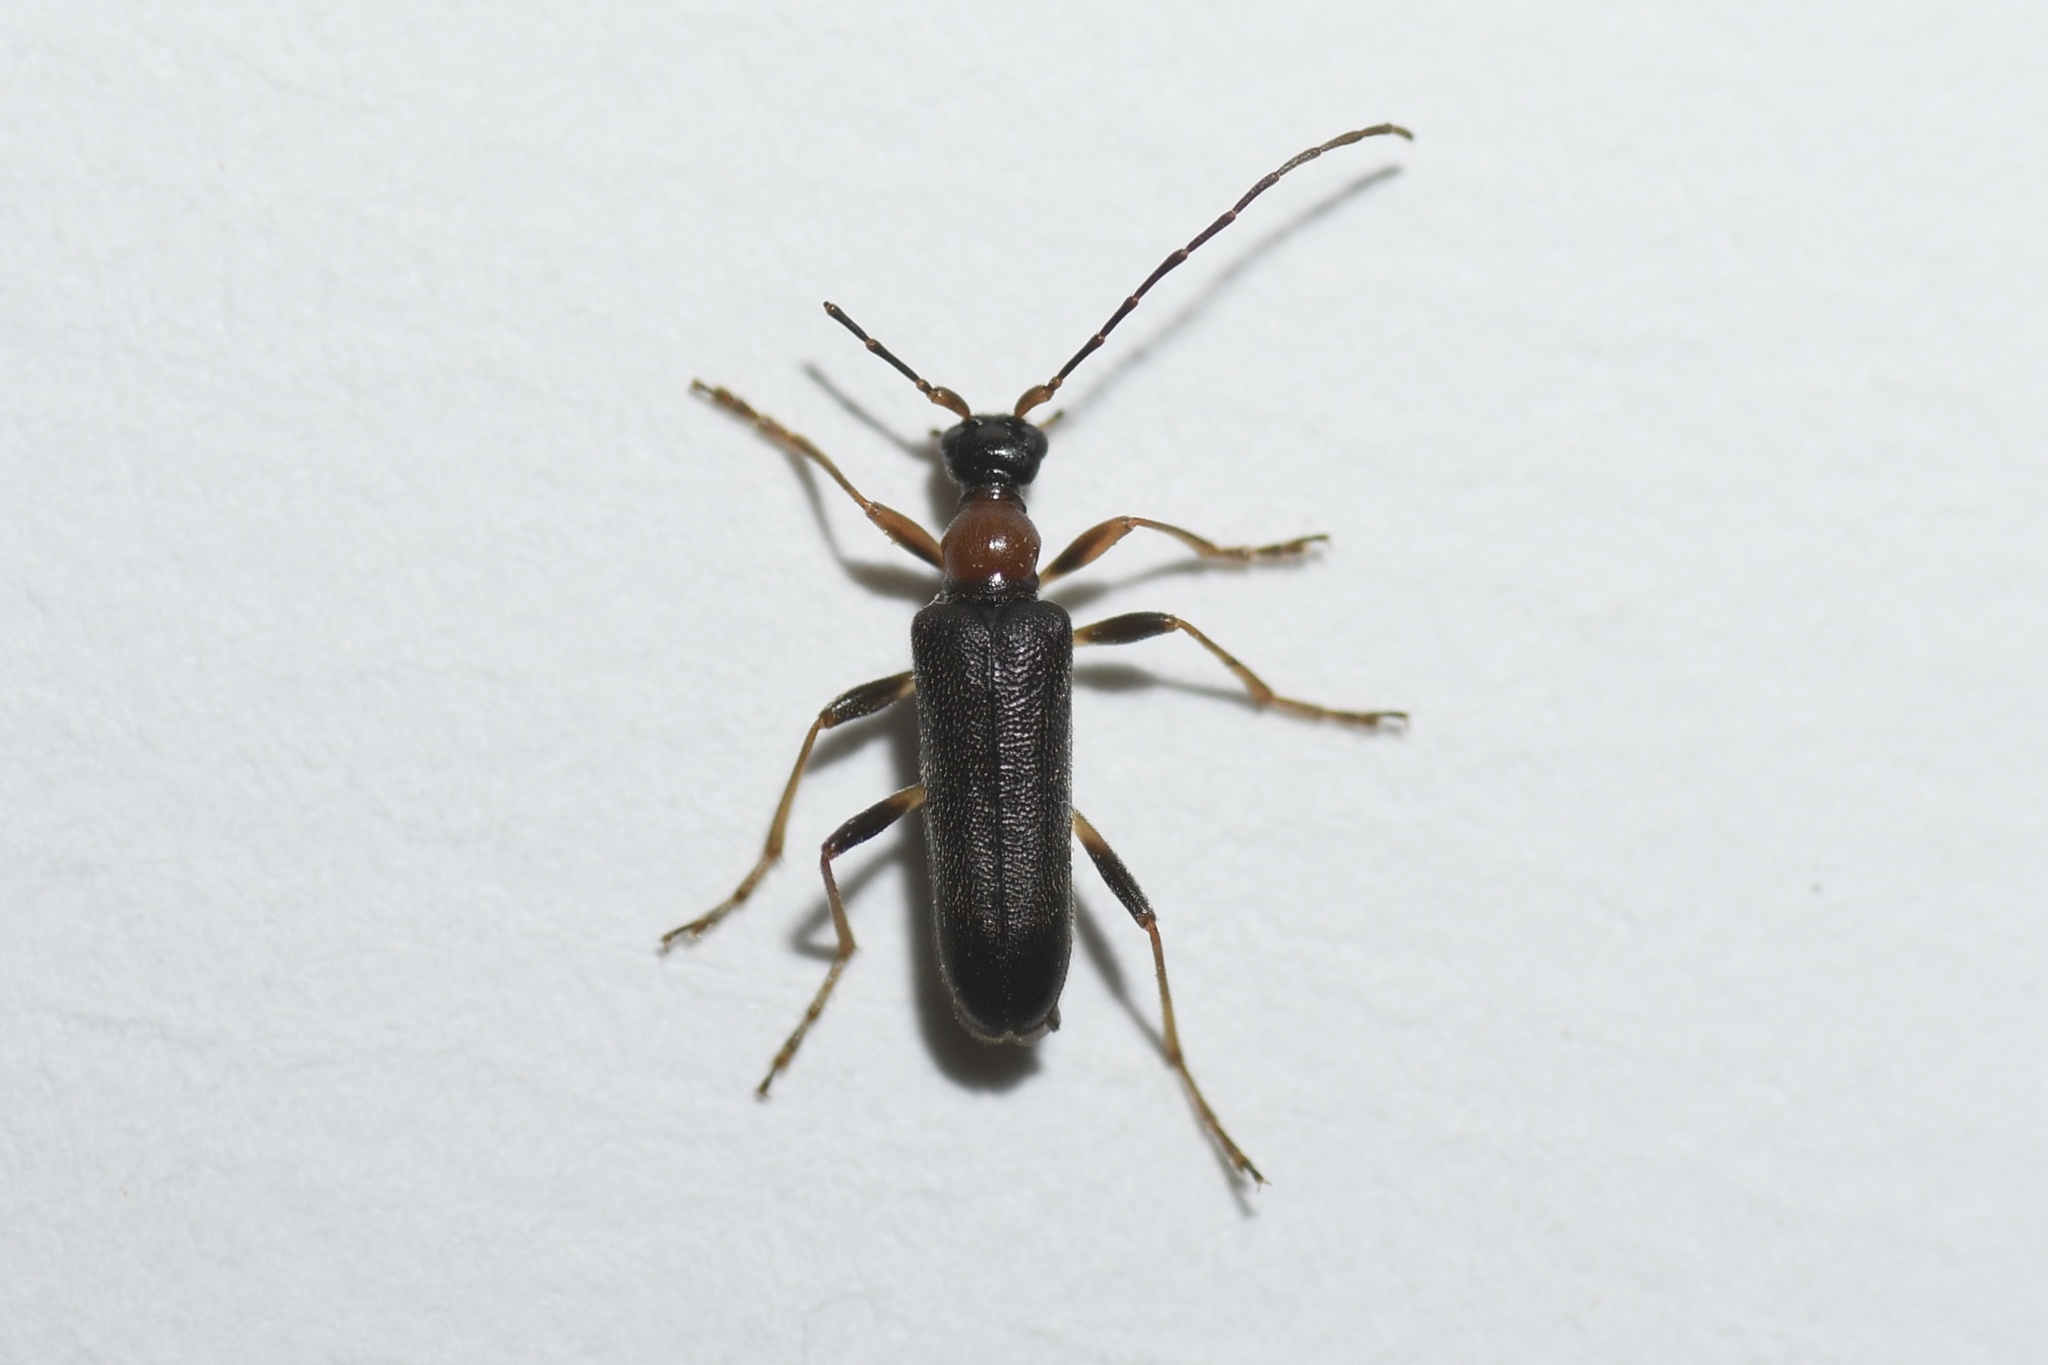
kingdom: Animalia
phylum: Arthropoda
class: Insecta
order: Coleoptera
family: Cerambycidae
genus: Pidonia
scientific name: Pidonia ruficollis
